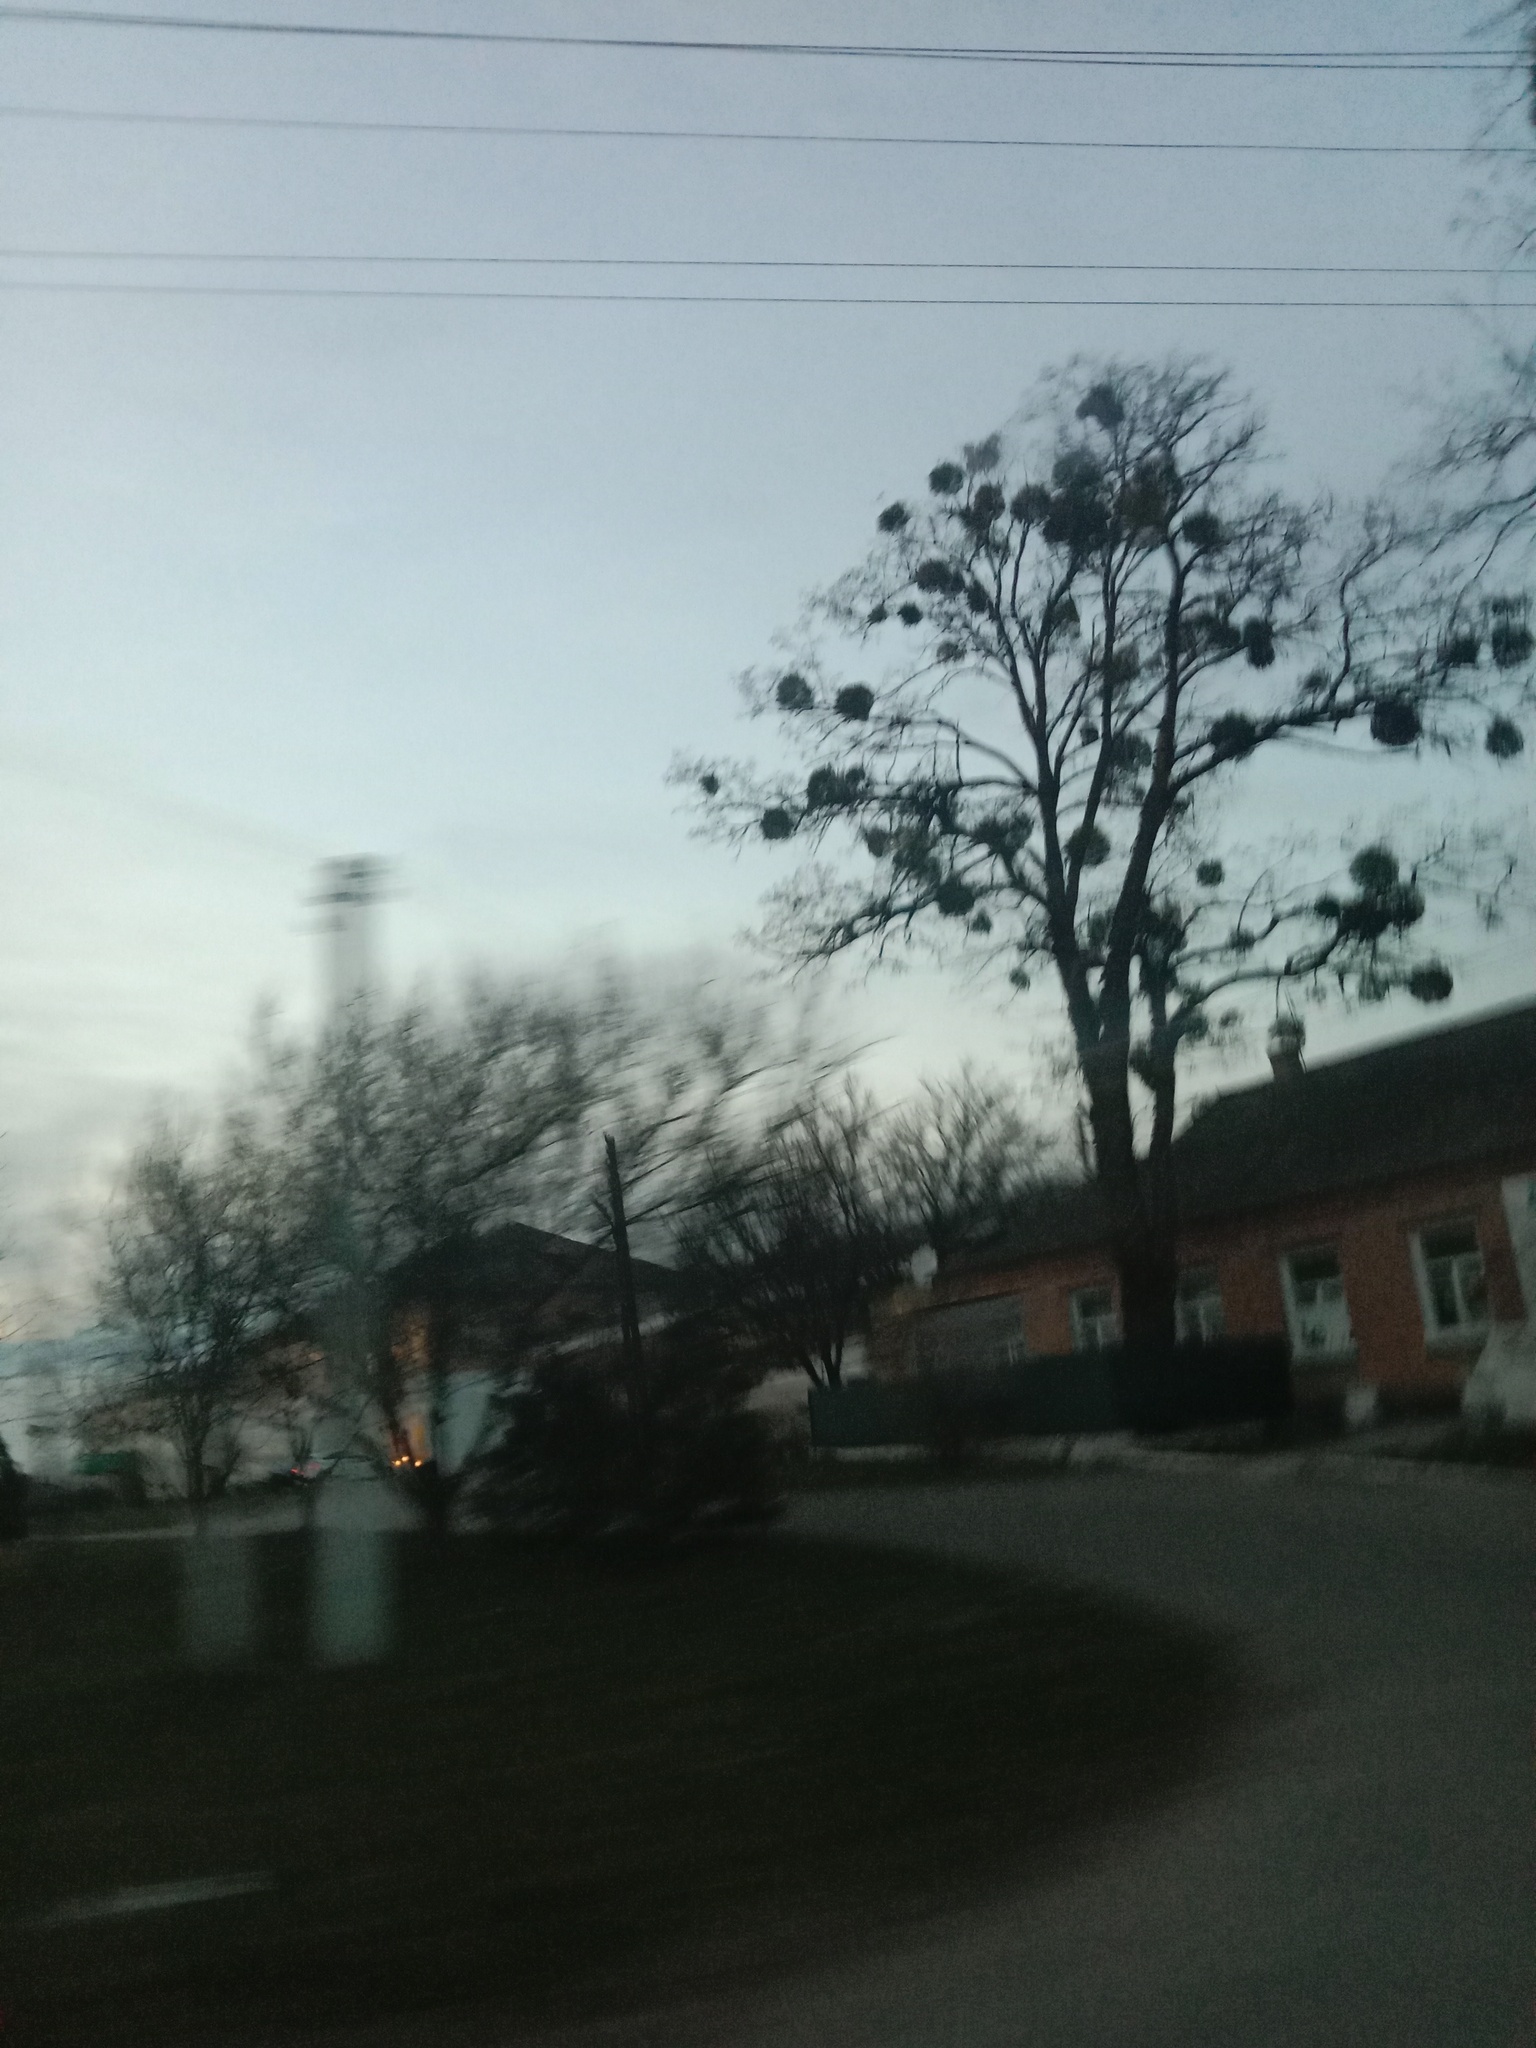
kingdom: Plantae
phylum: Tracheophyta
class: Magnoliopsida
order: Santalales
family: Viscaceae
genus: Viscum
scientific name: Viscum album
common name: Mistletoe
